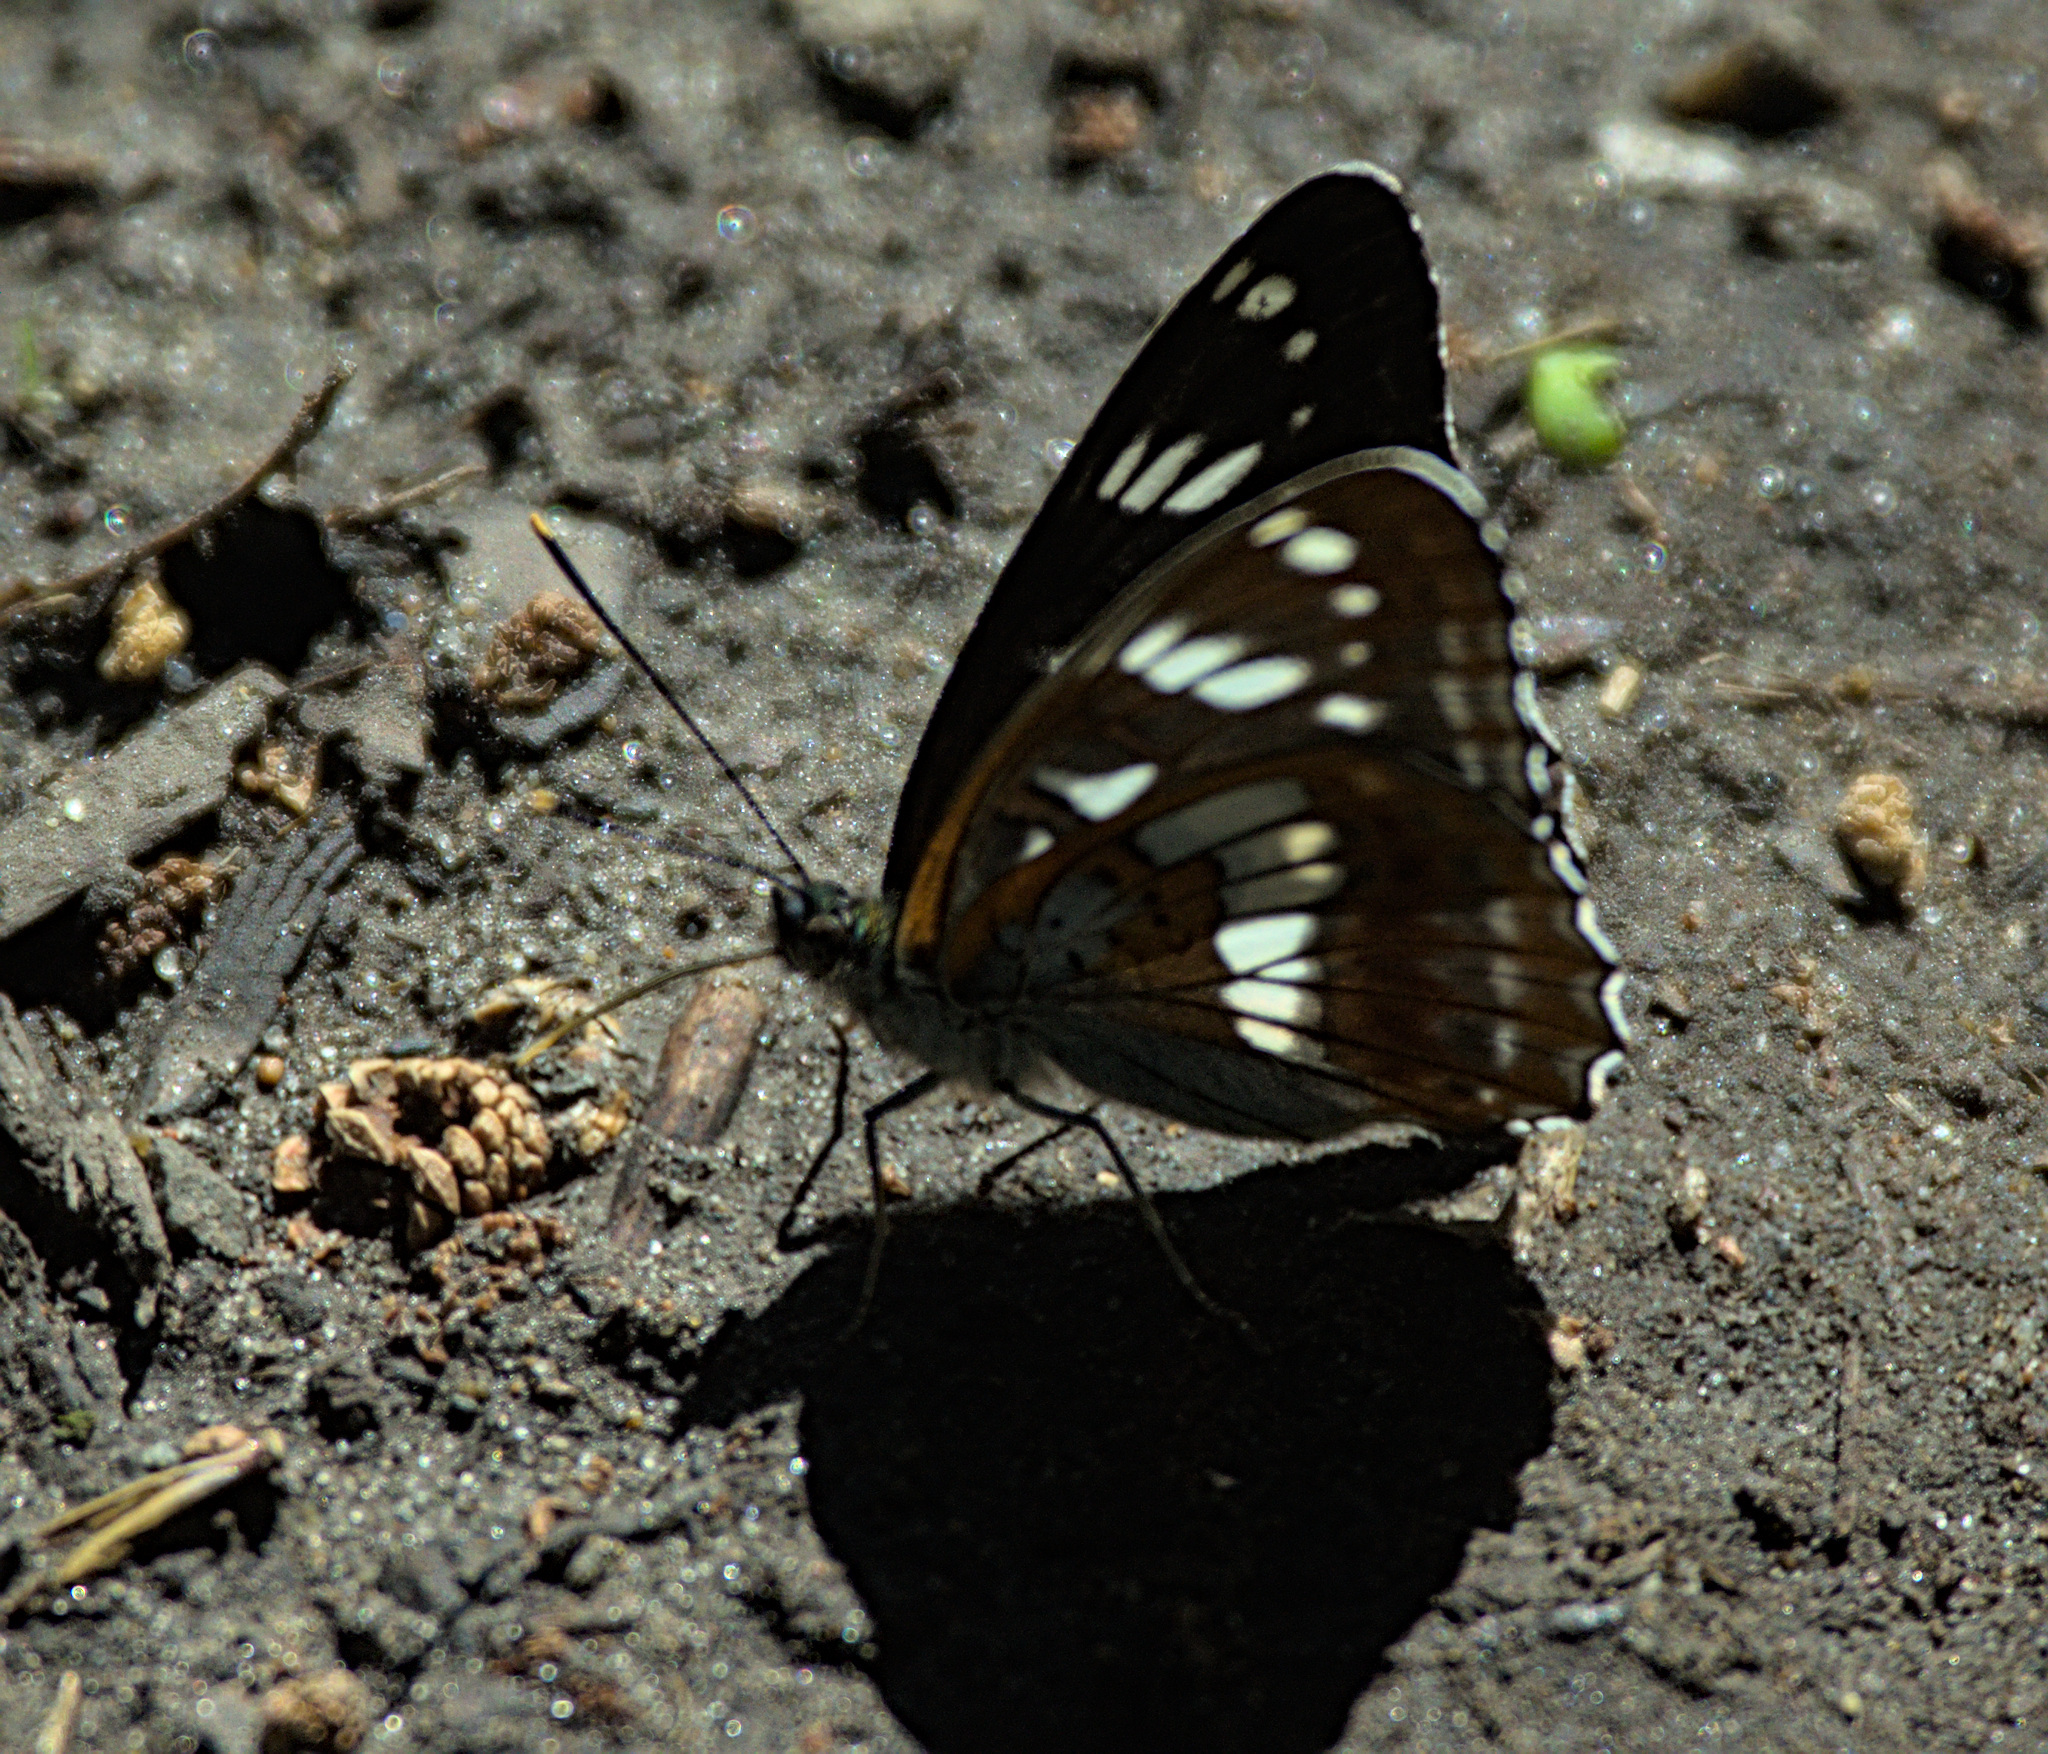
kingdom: Animalia
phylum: Arthropoda
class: Insecta
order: Lepidoptera
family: Nymphalidae
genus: Limenitis
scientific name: Limenitis helmanni
